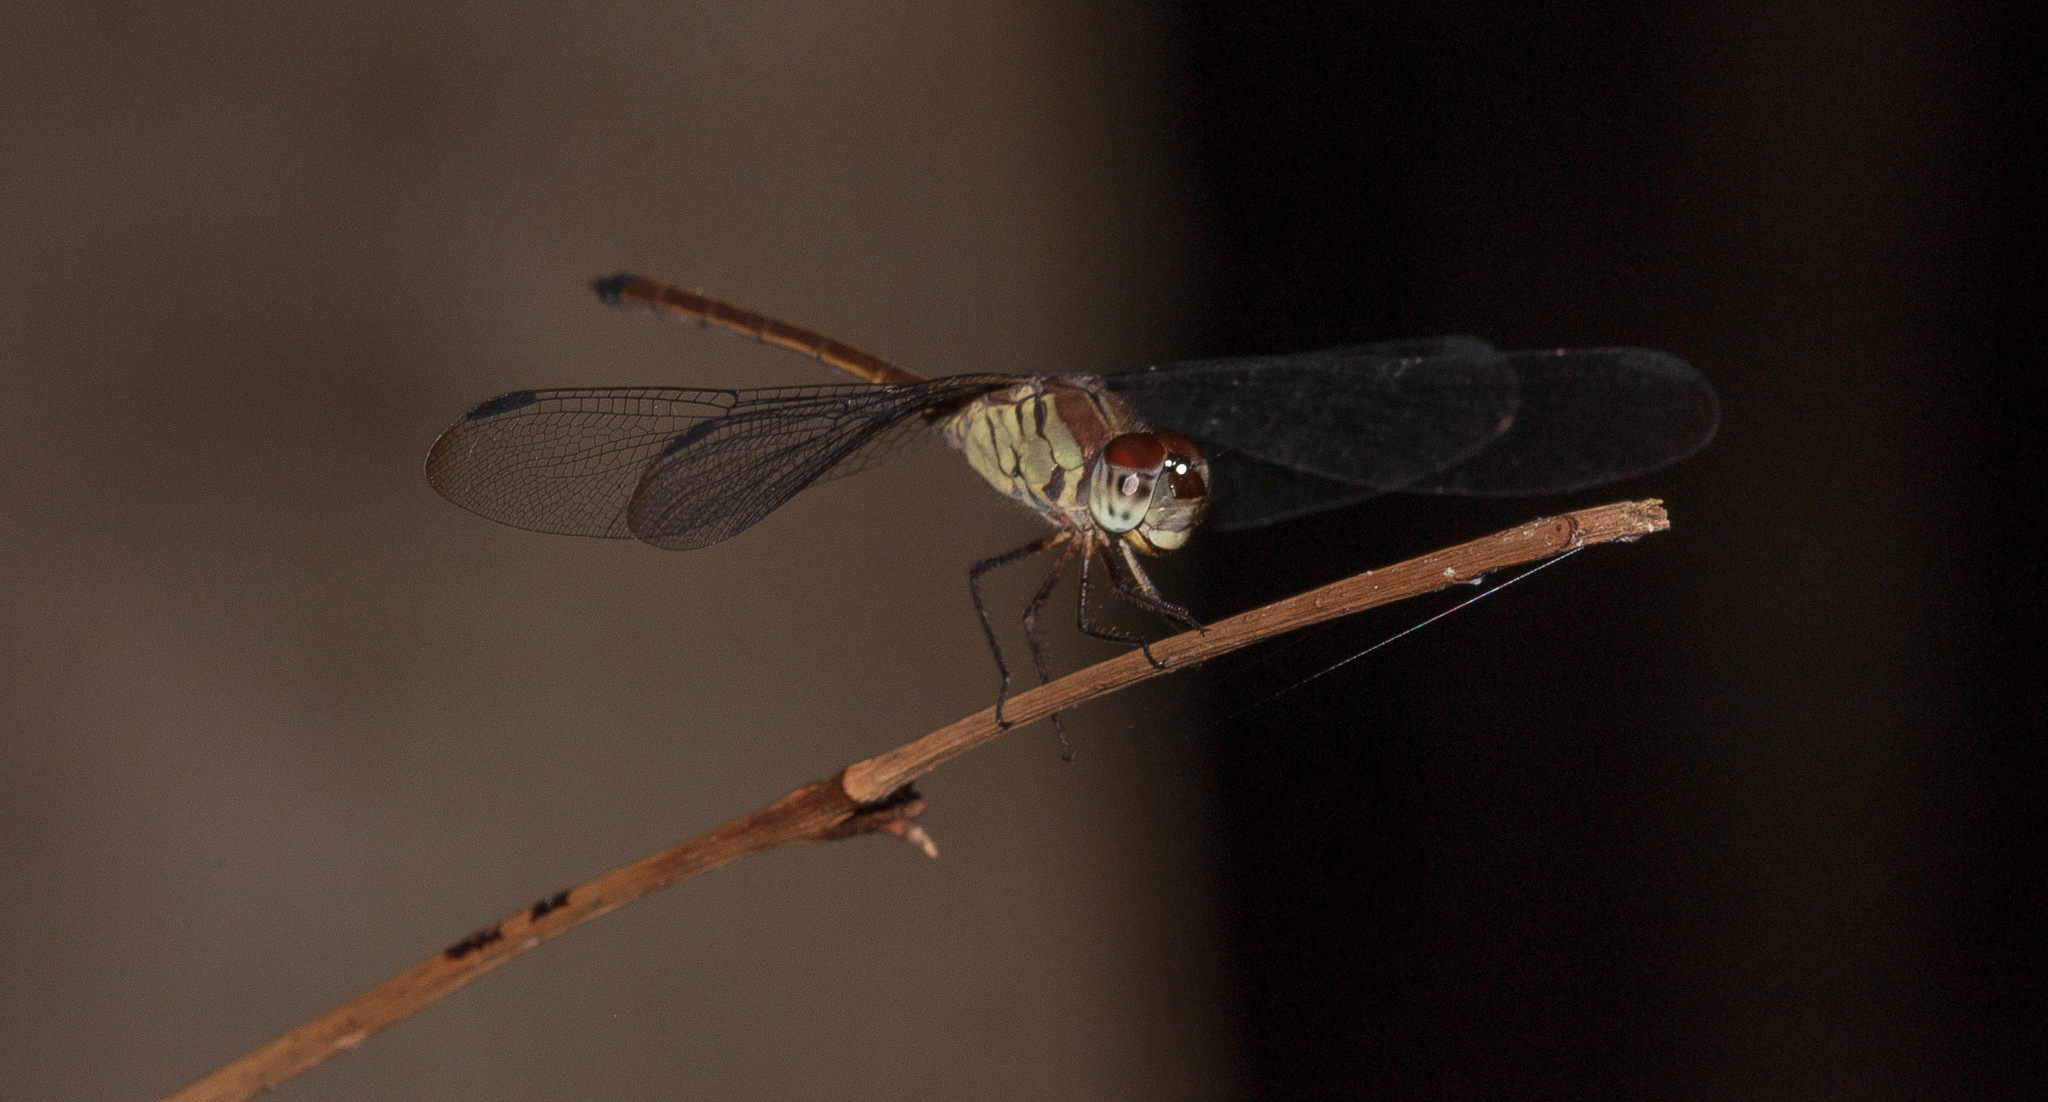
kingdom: Animalia
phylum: Arthropoda
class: Insecta
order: Odonata
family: Libellulidae
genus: Lathrecista
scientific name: Lathrecista asiatica
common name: Scarlet grenadier
